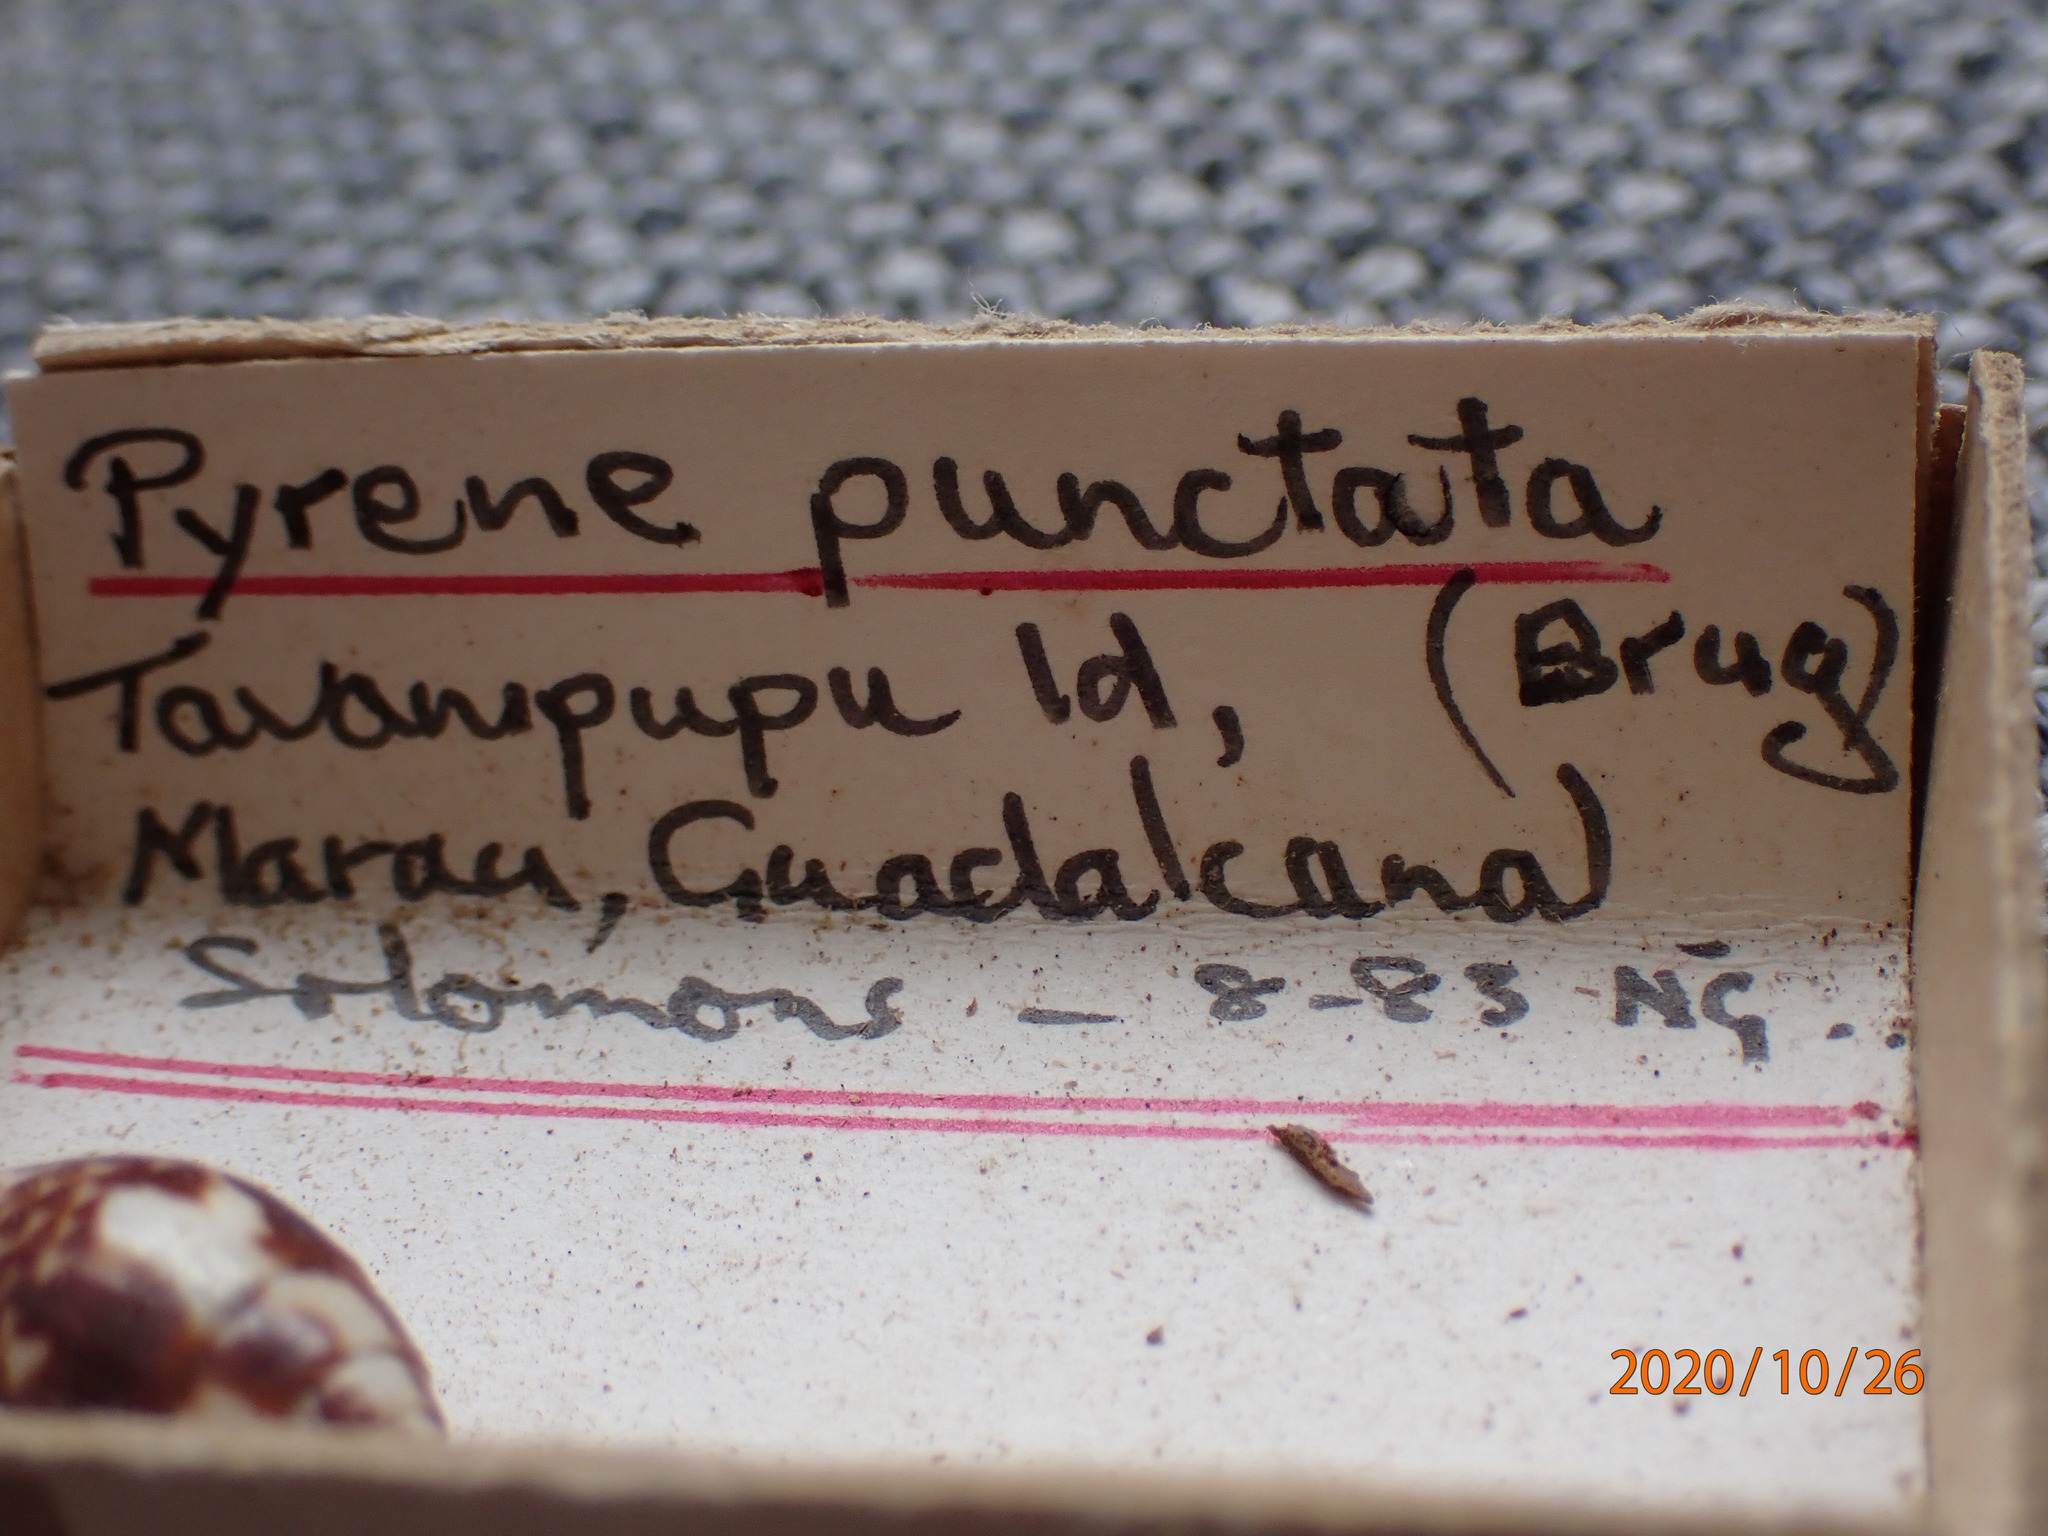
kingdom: Animalia
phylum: Mollusca
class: Gastropoda
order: Neogastropoda
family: Columbellidae
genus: Pyrene
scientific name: Pyrene punctata
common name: Punctate dovesnail
